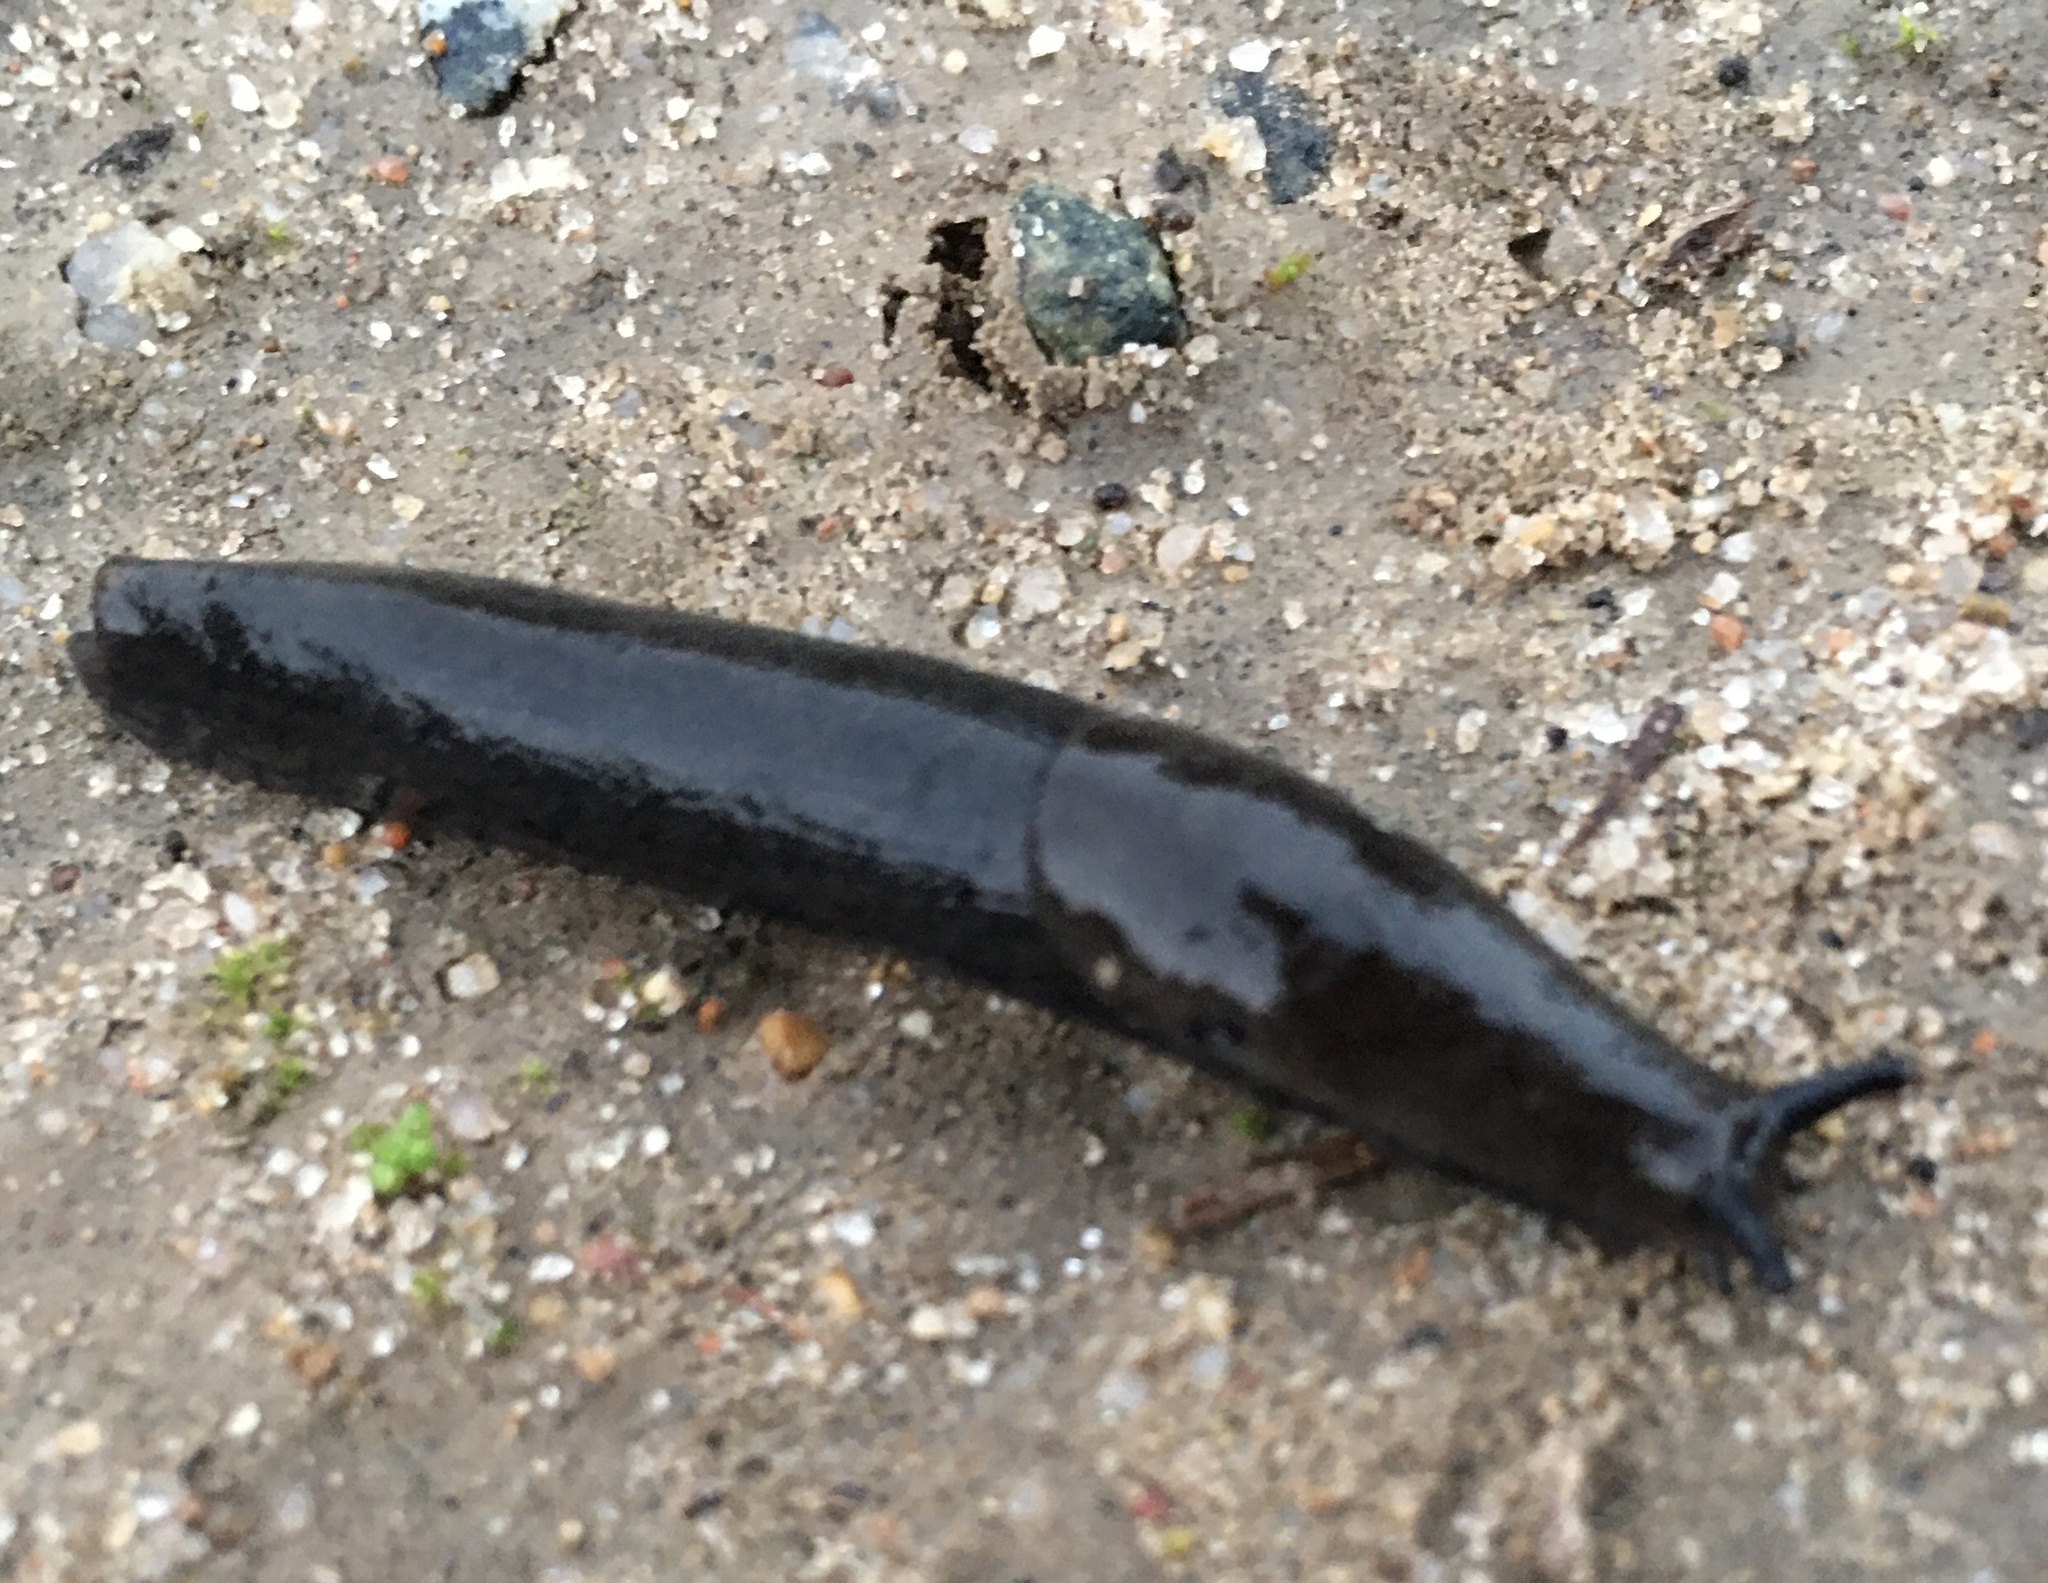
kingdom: Animalia
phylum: Mollusca
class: Gastropoda
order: Stylommatophora
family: Ariolimacidae
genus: Hesperarion
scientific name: Hesperarion niger
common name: Black western slug
